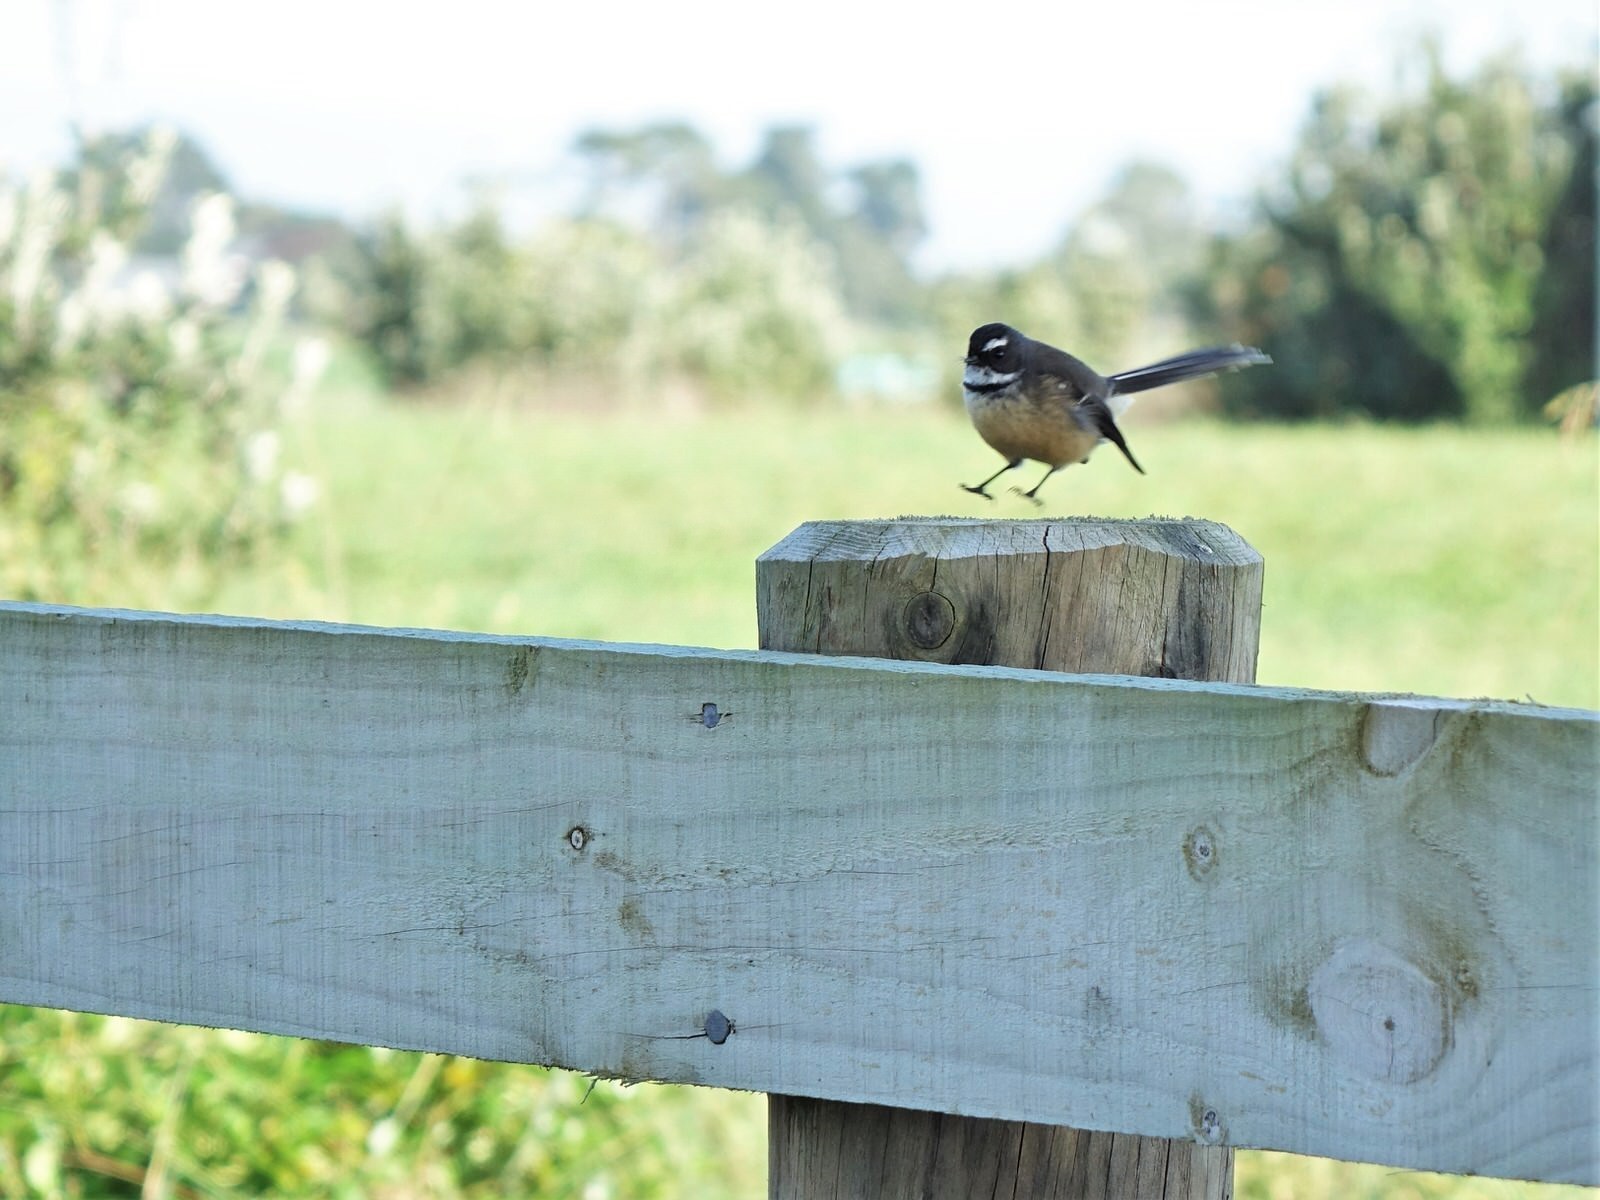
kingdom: Animalia
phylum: Chordata
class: Aves
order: Passeriformes
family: Rhipiduridae
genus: Rhipidura
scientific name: Rhipidura fuliginosa
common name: New zealand fantail
